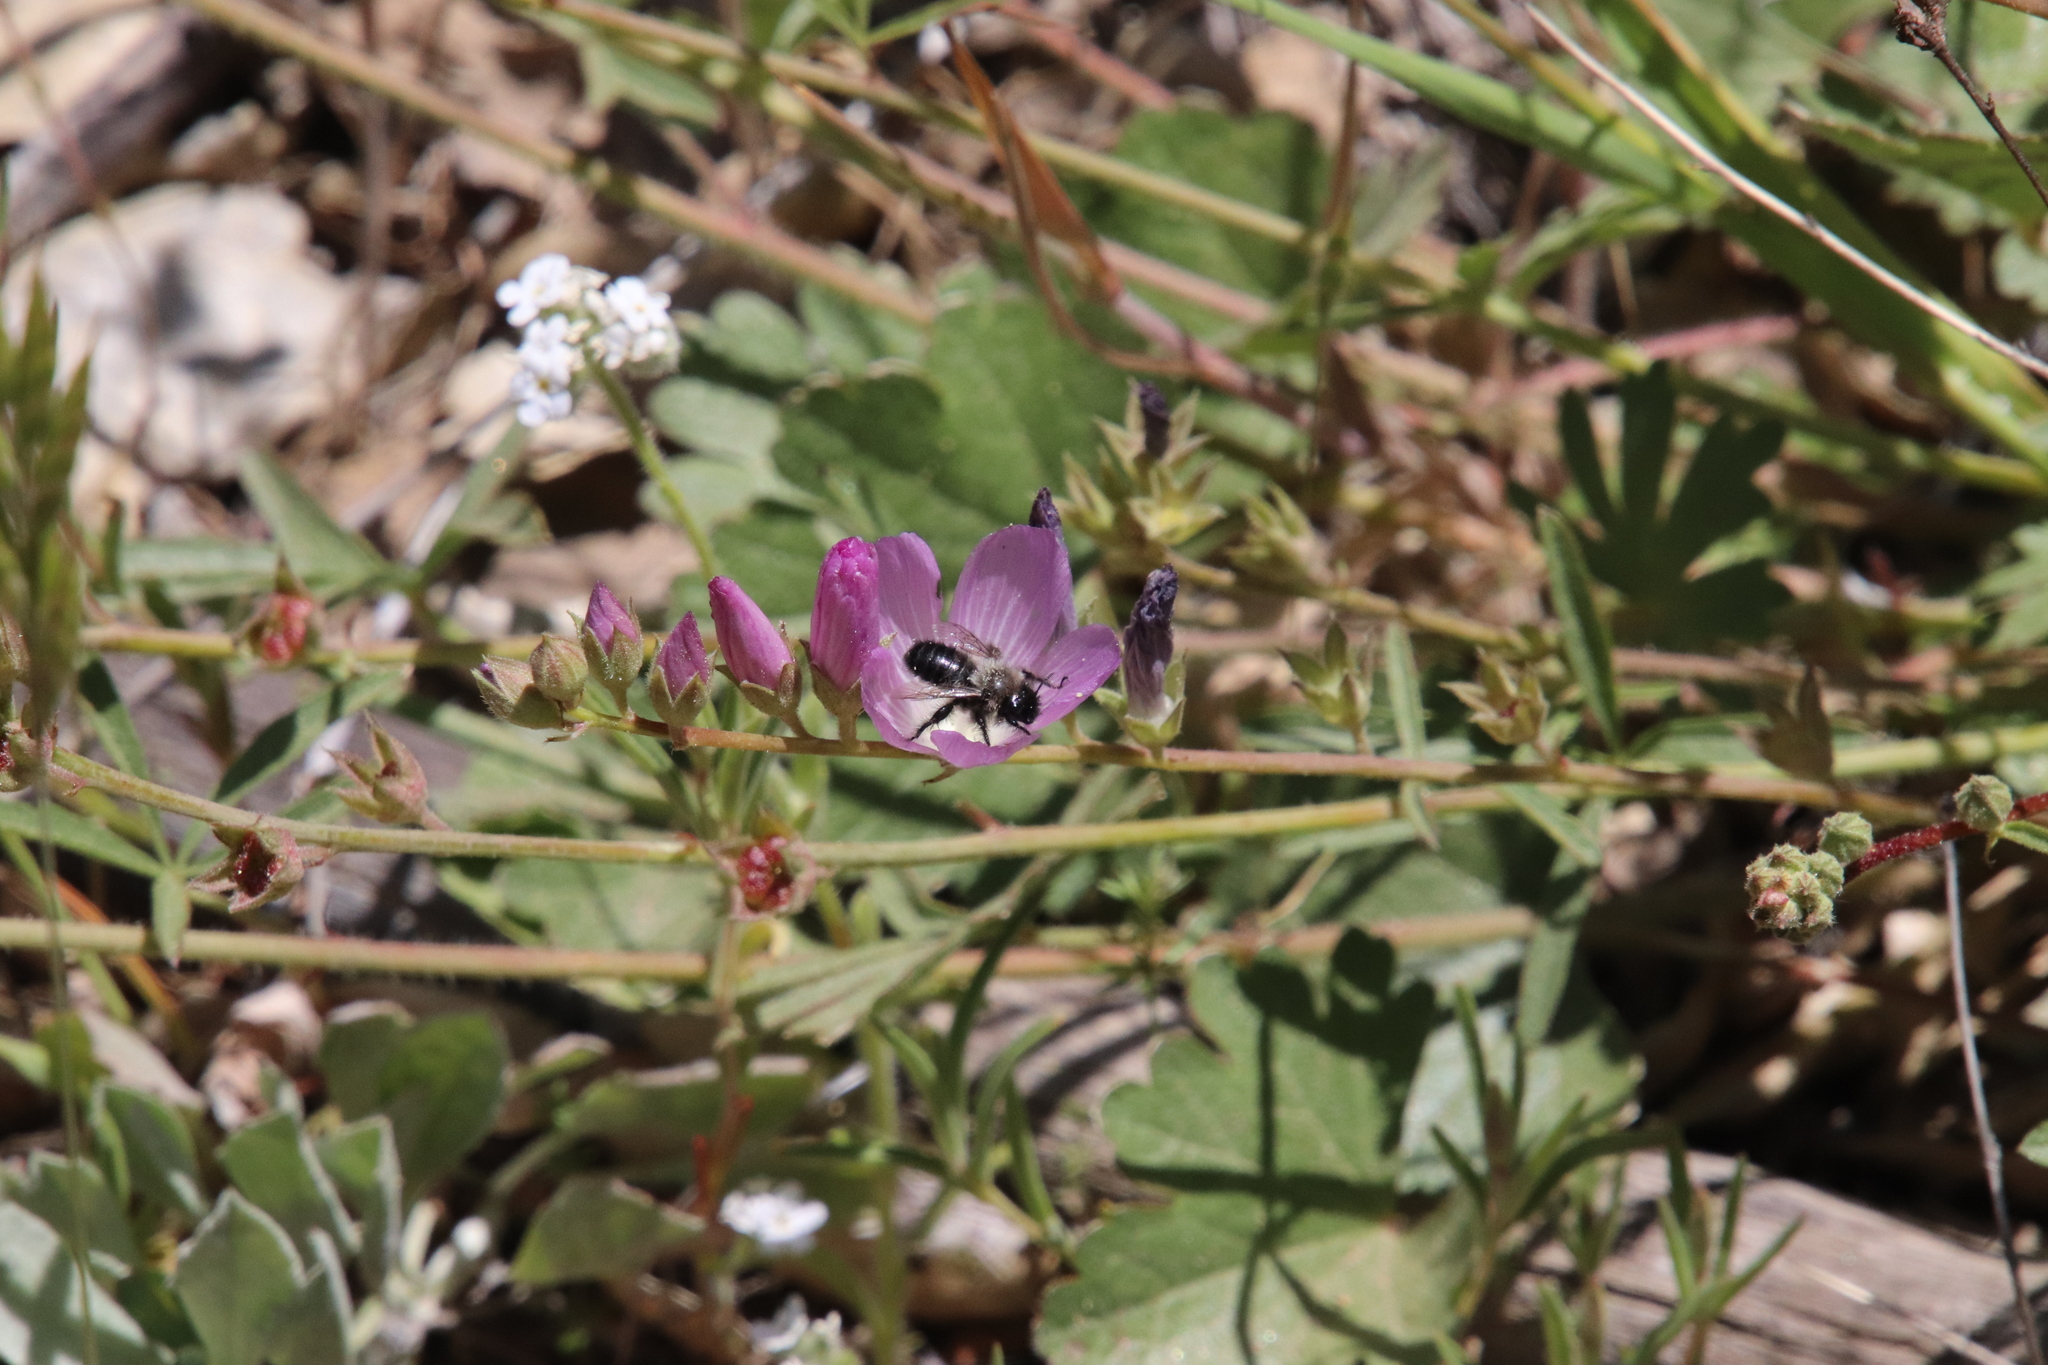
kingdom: Animalia
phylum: Arthropoda
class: Insecta
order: Hymenoptera
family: Apidae
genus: Diadasia
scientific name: Diadasia nigrifrons
